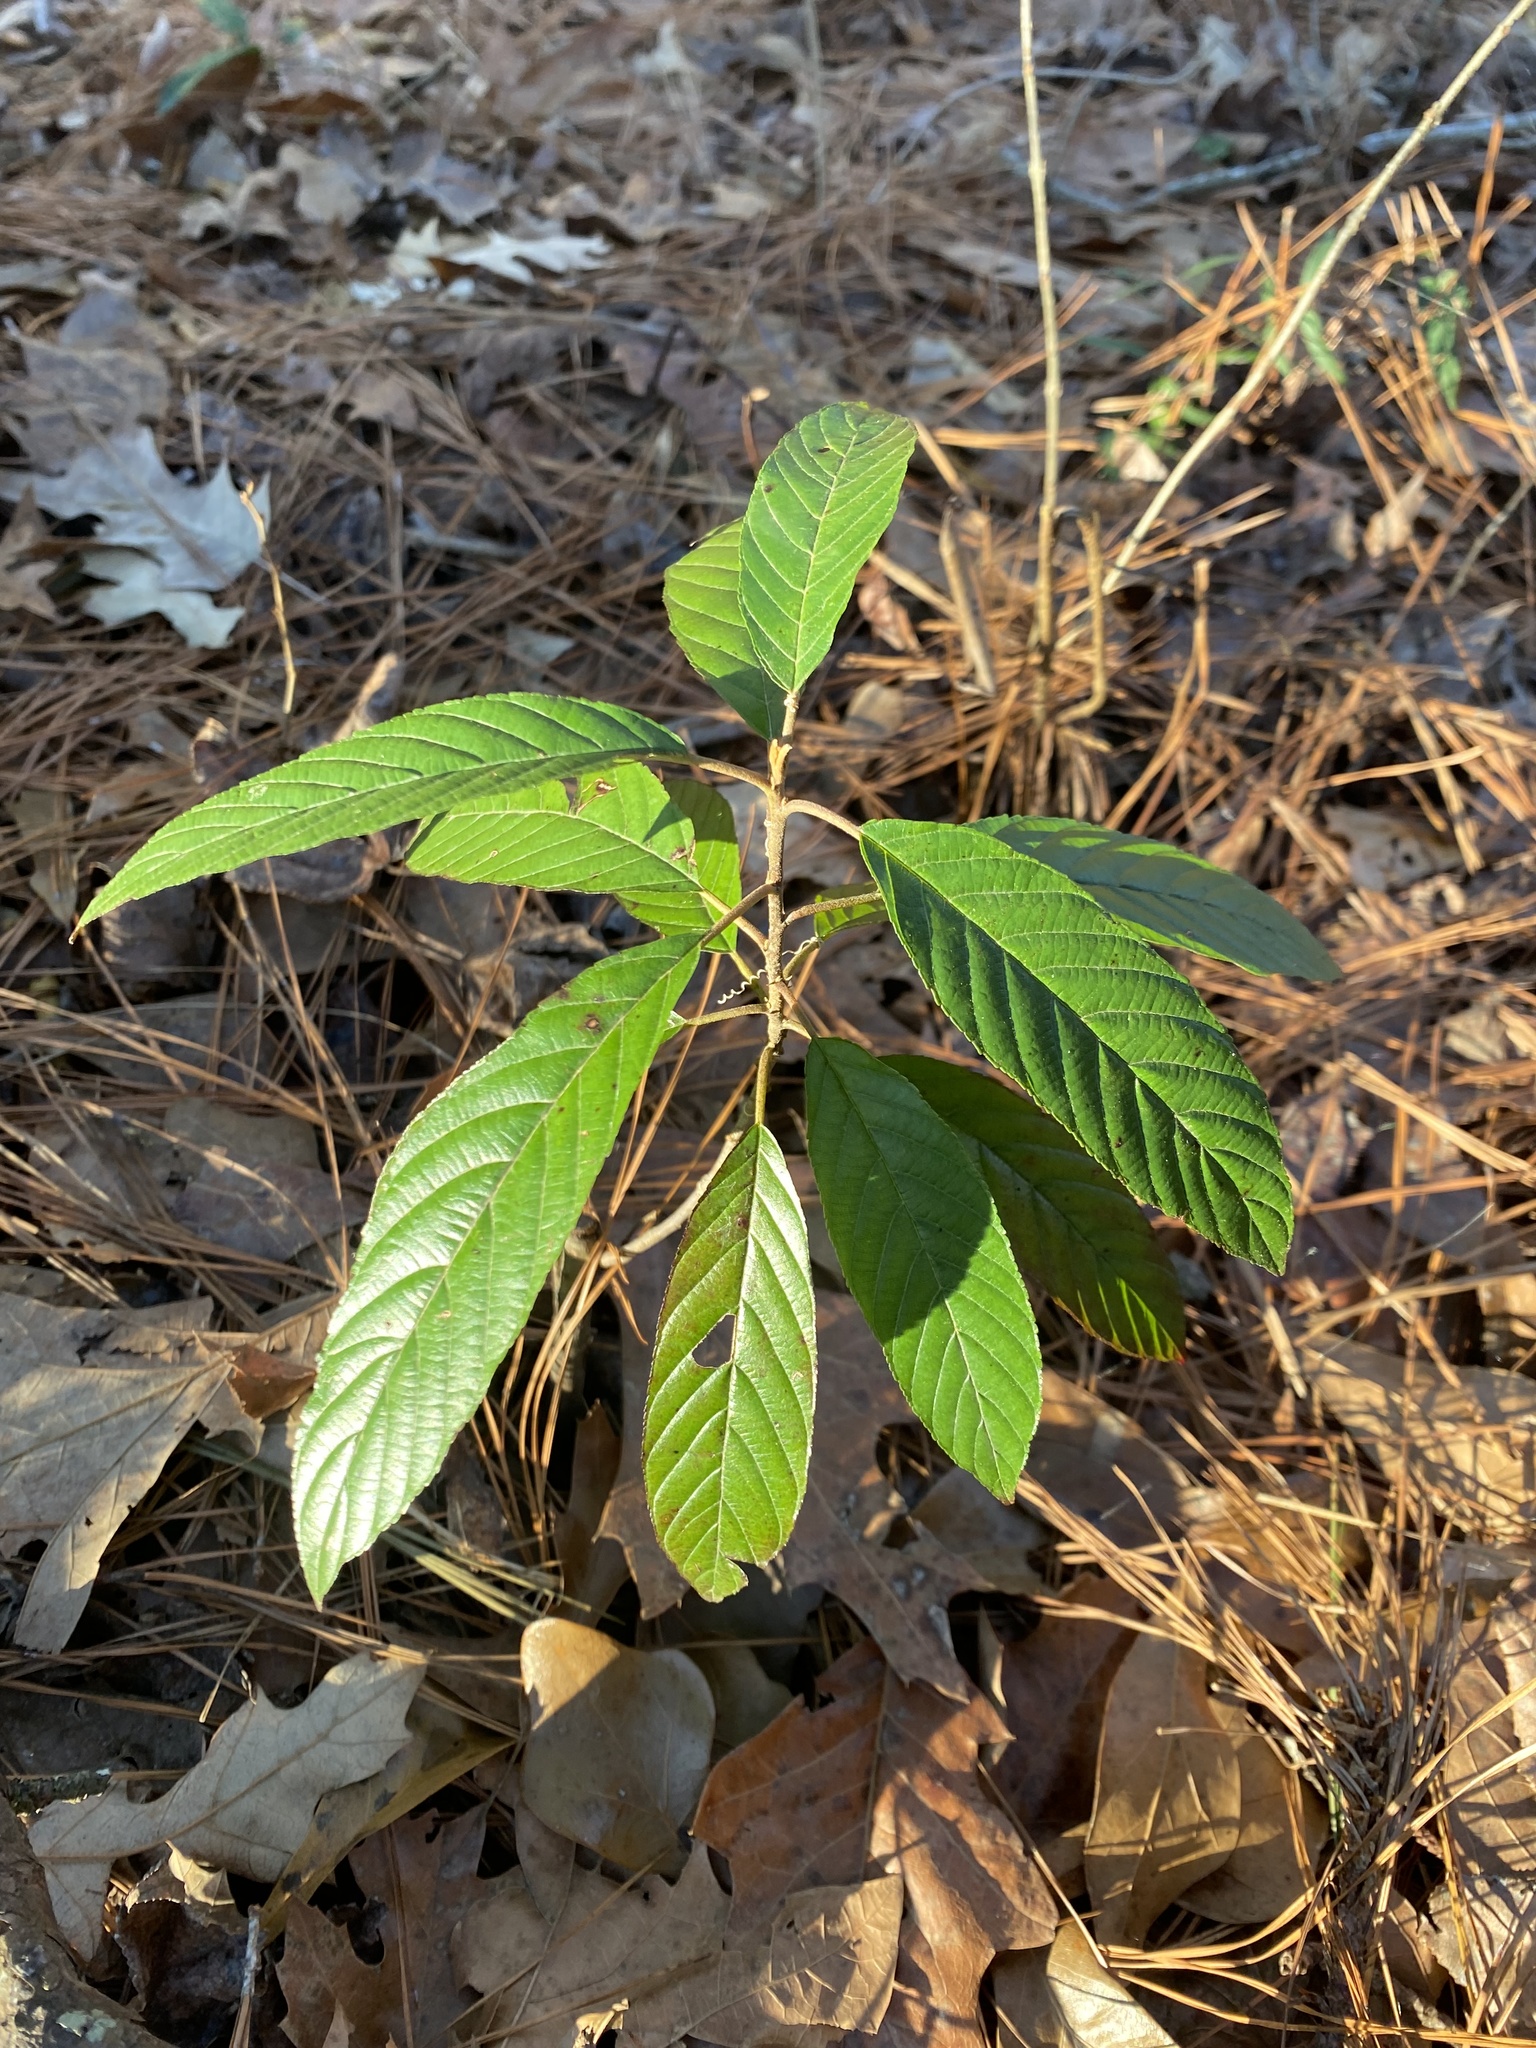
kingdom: Plantae
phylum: Tracheophyta
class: Magnoliopsida
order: Rosales
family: Rhamnaceae
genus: Frangula
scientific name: Frangula caroliniana
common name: Carolina buckthorn
